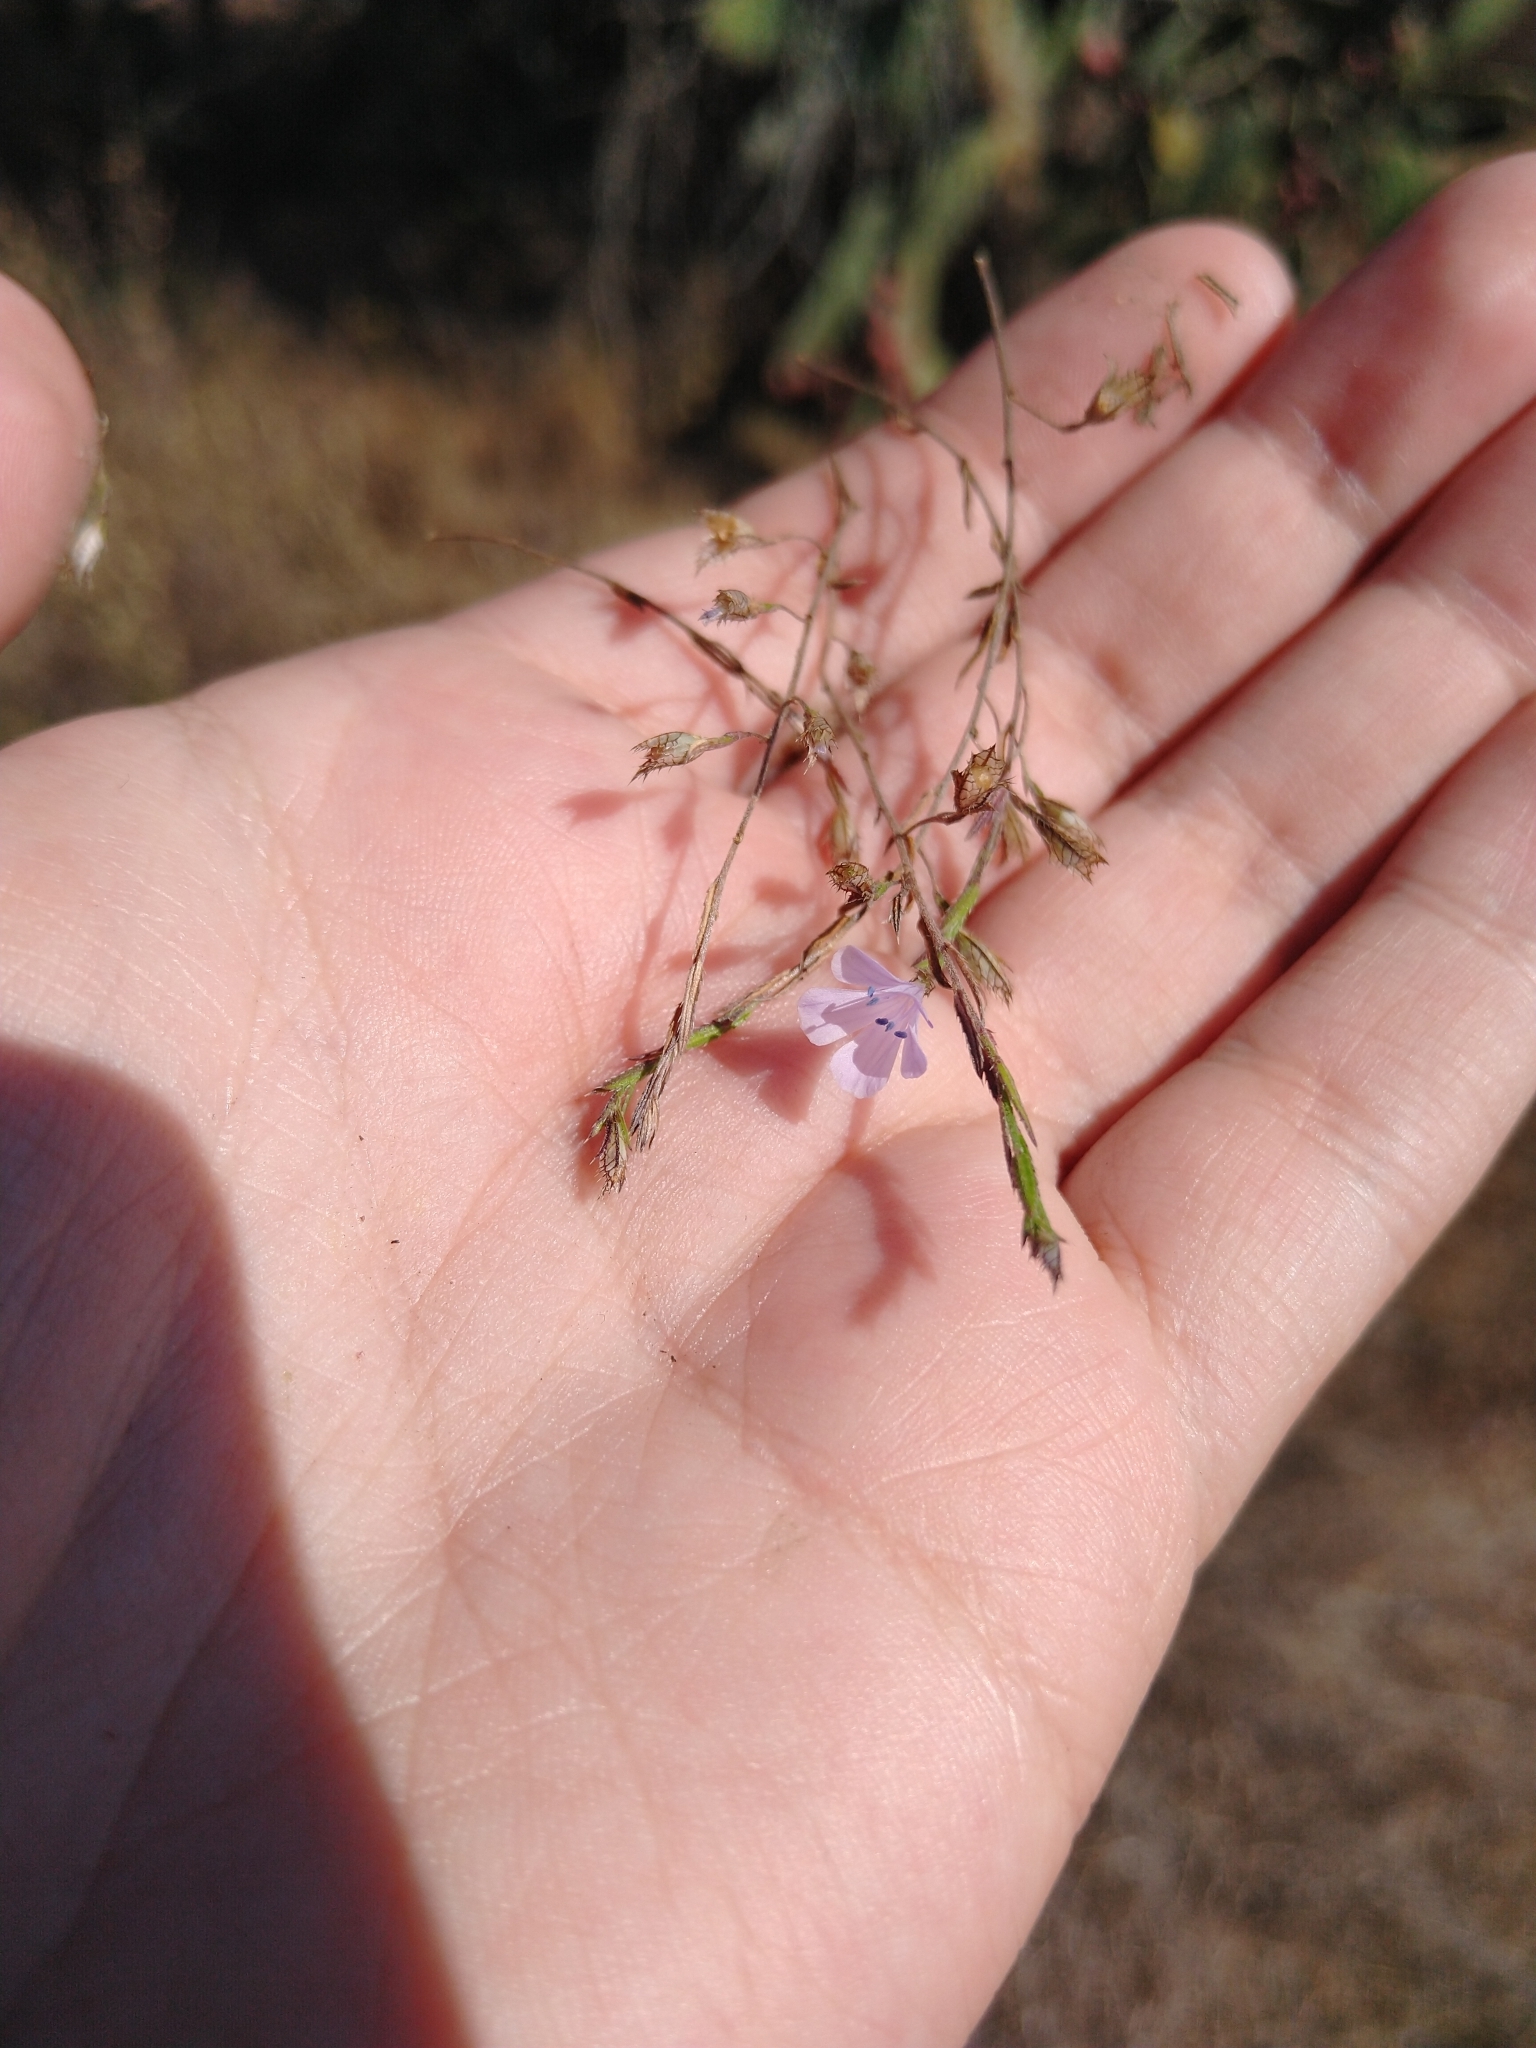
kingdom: Plantae
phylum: Tracheophyta
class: Magnoliopsida
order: Ericales
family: Polemoniaceae
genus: Loeselia
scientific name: Loeselia coerulea
